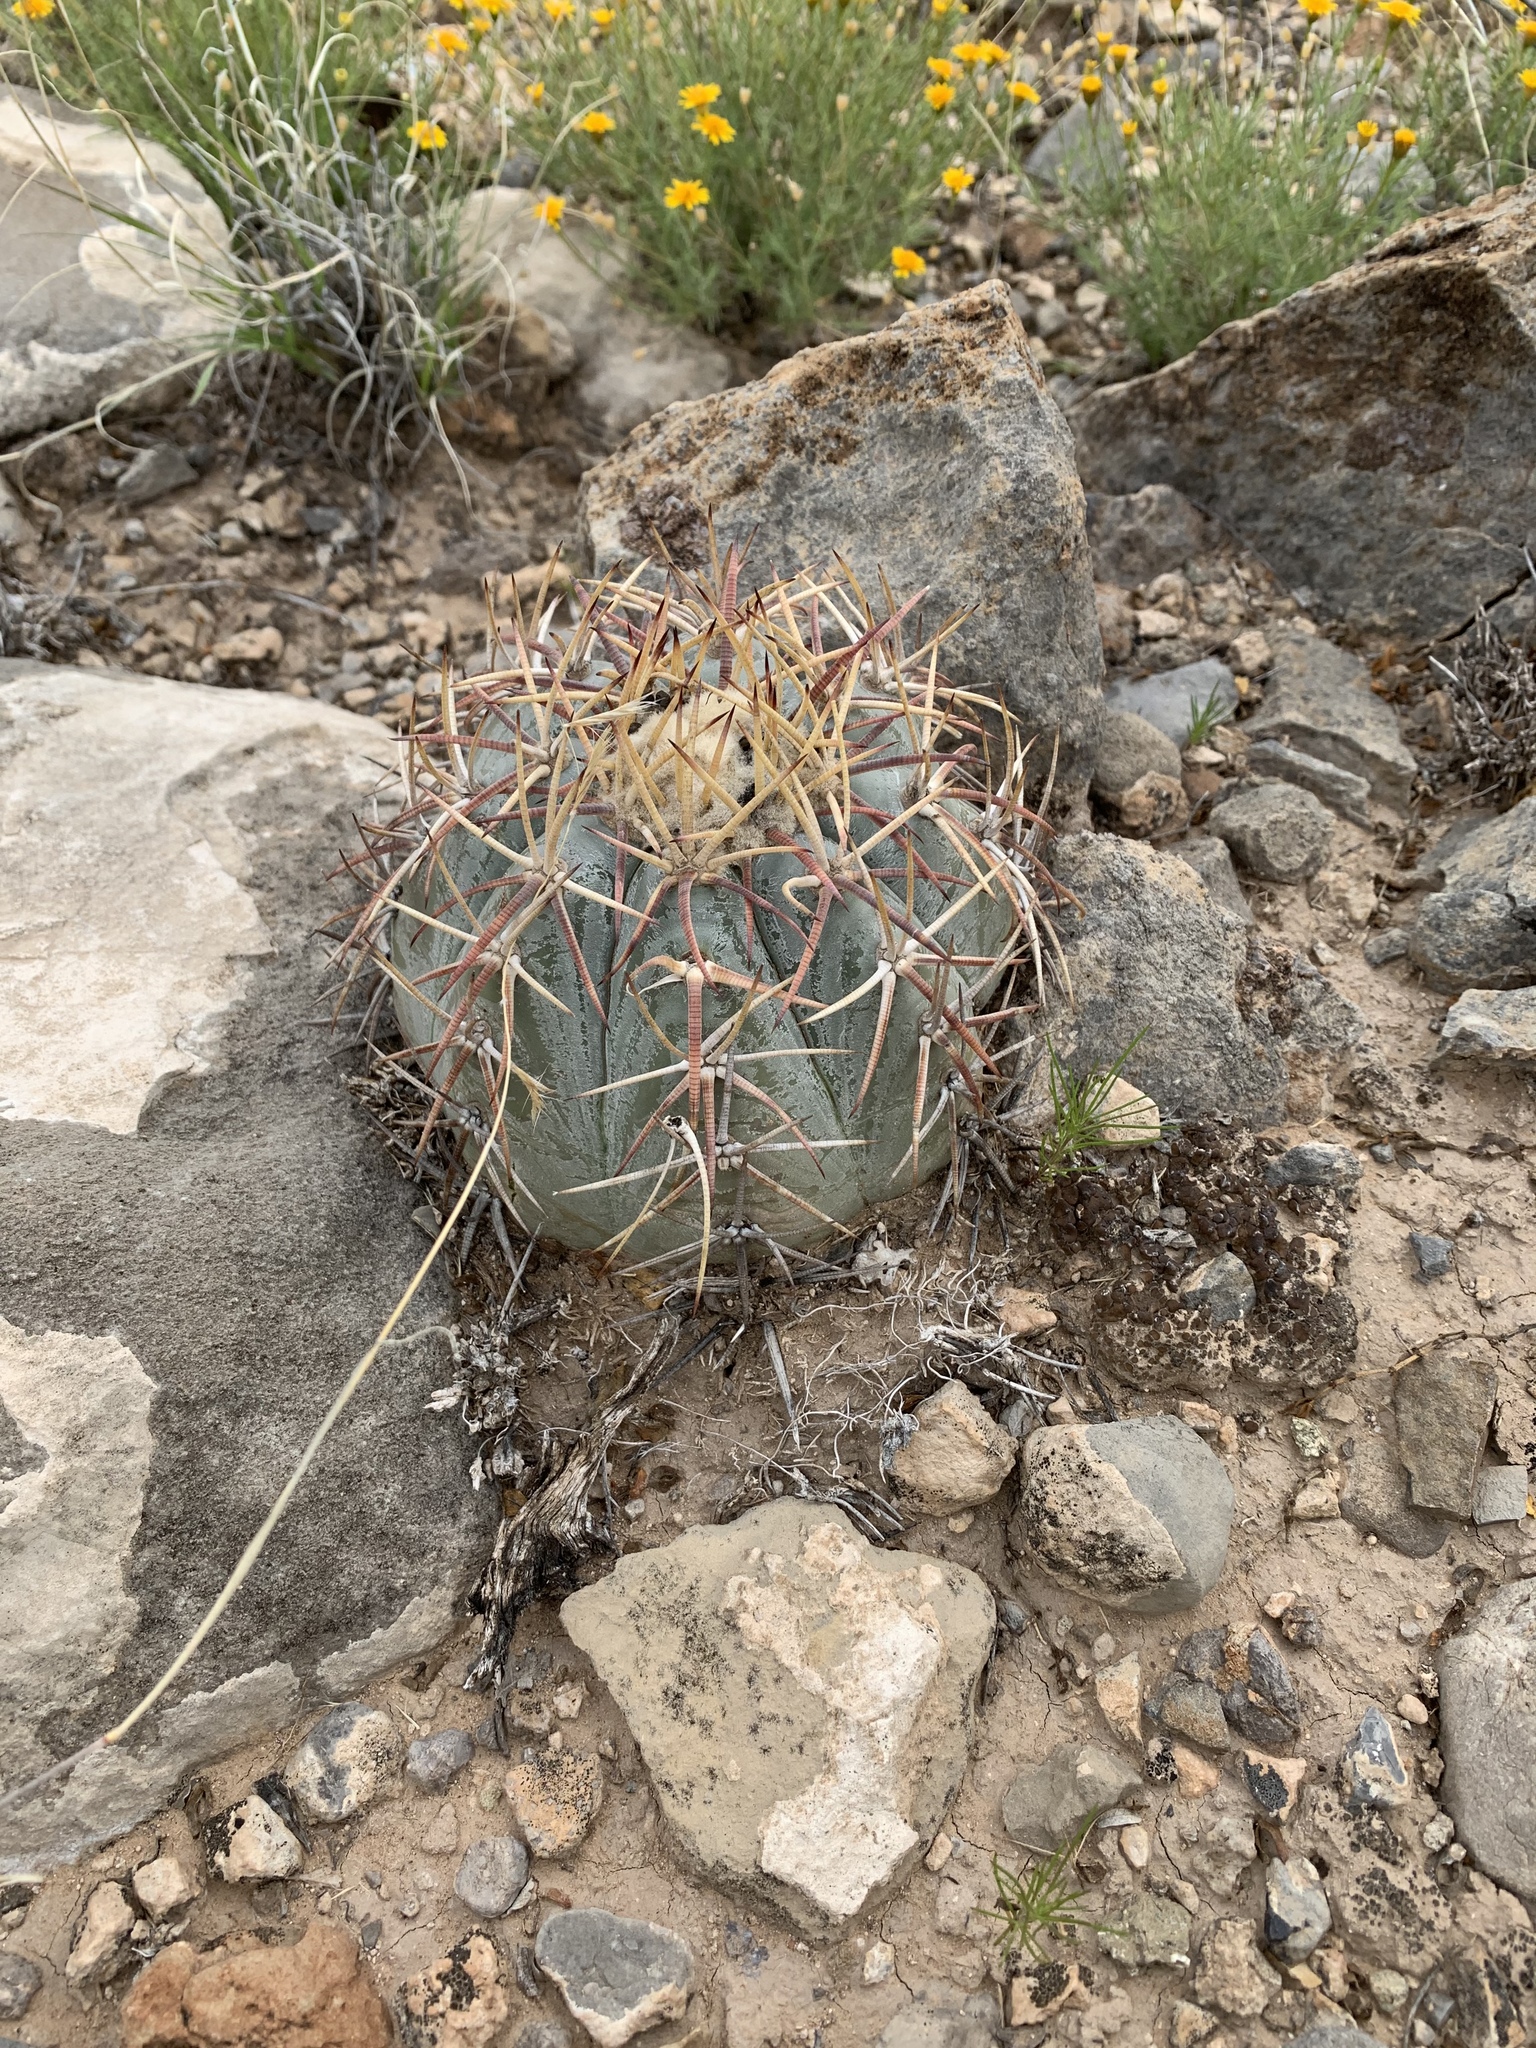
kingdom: Plantae
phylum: Tracheophyta
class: Magnoliopsida
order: Caryophyllales
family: Cactaceae
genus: Echinocactus
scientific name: Echinocactus horizonthalonius
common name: Devilshead
